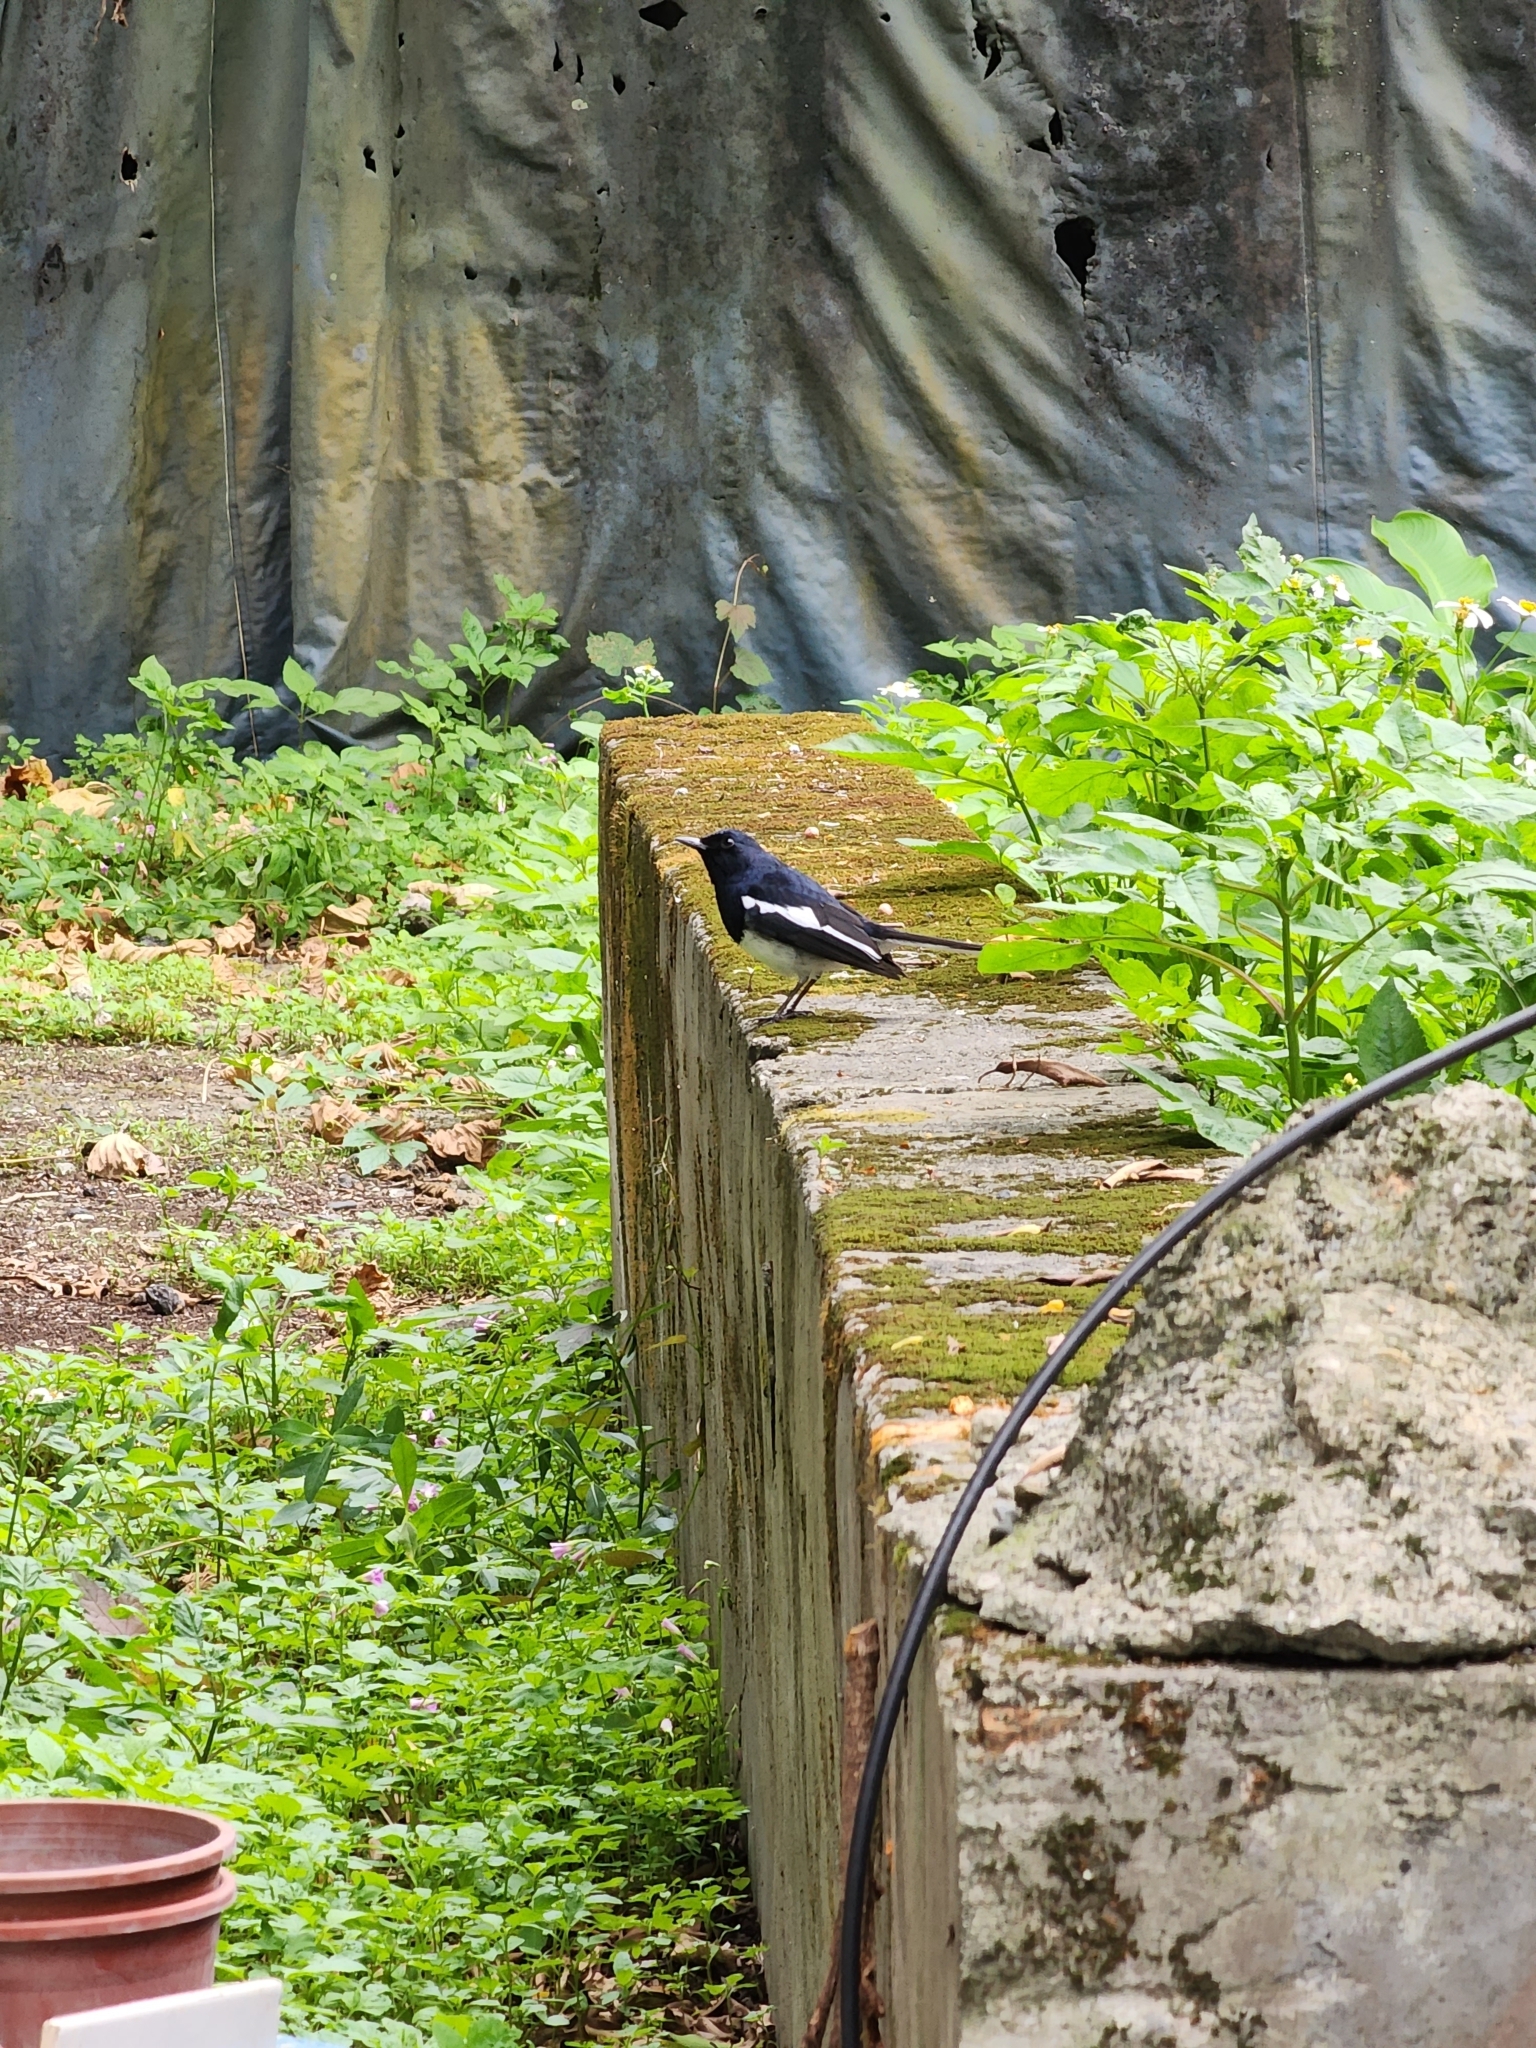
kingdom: Animalia
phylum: Chordata
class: Aves
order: Passeriformes
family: Muscicapidae
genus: Copsychus
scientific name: Copsychus saularis
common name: Oriental magpie-robin
